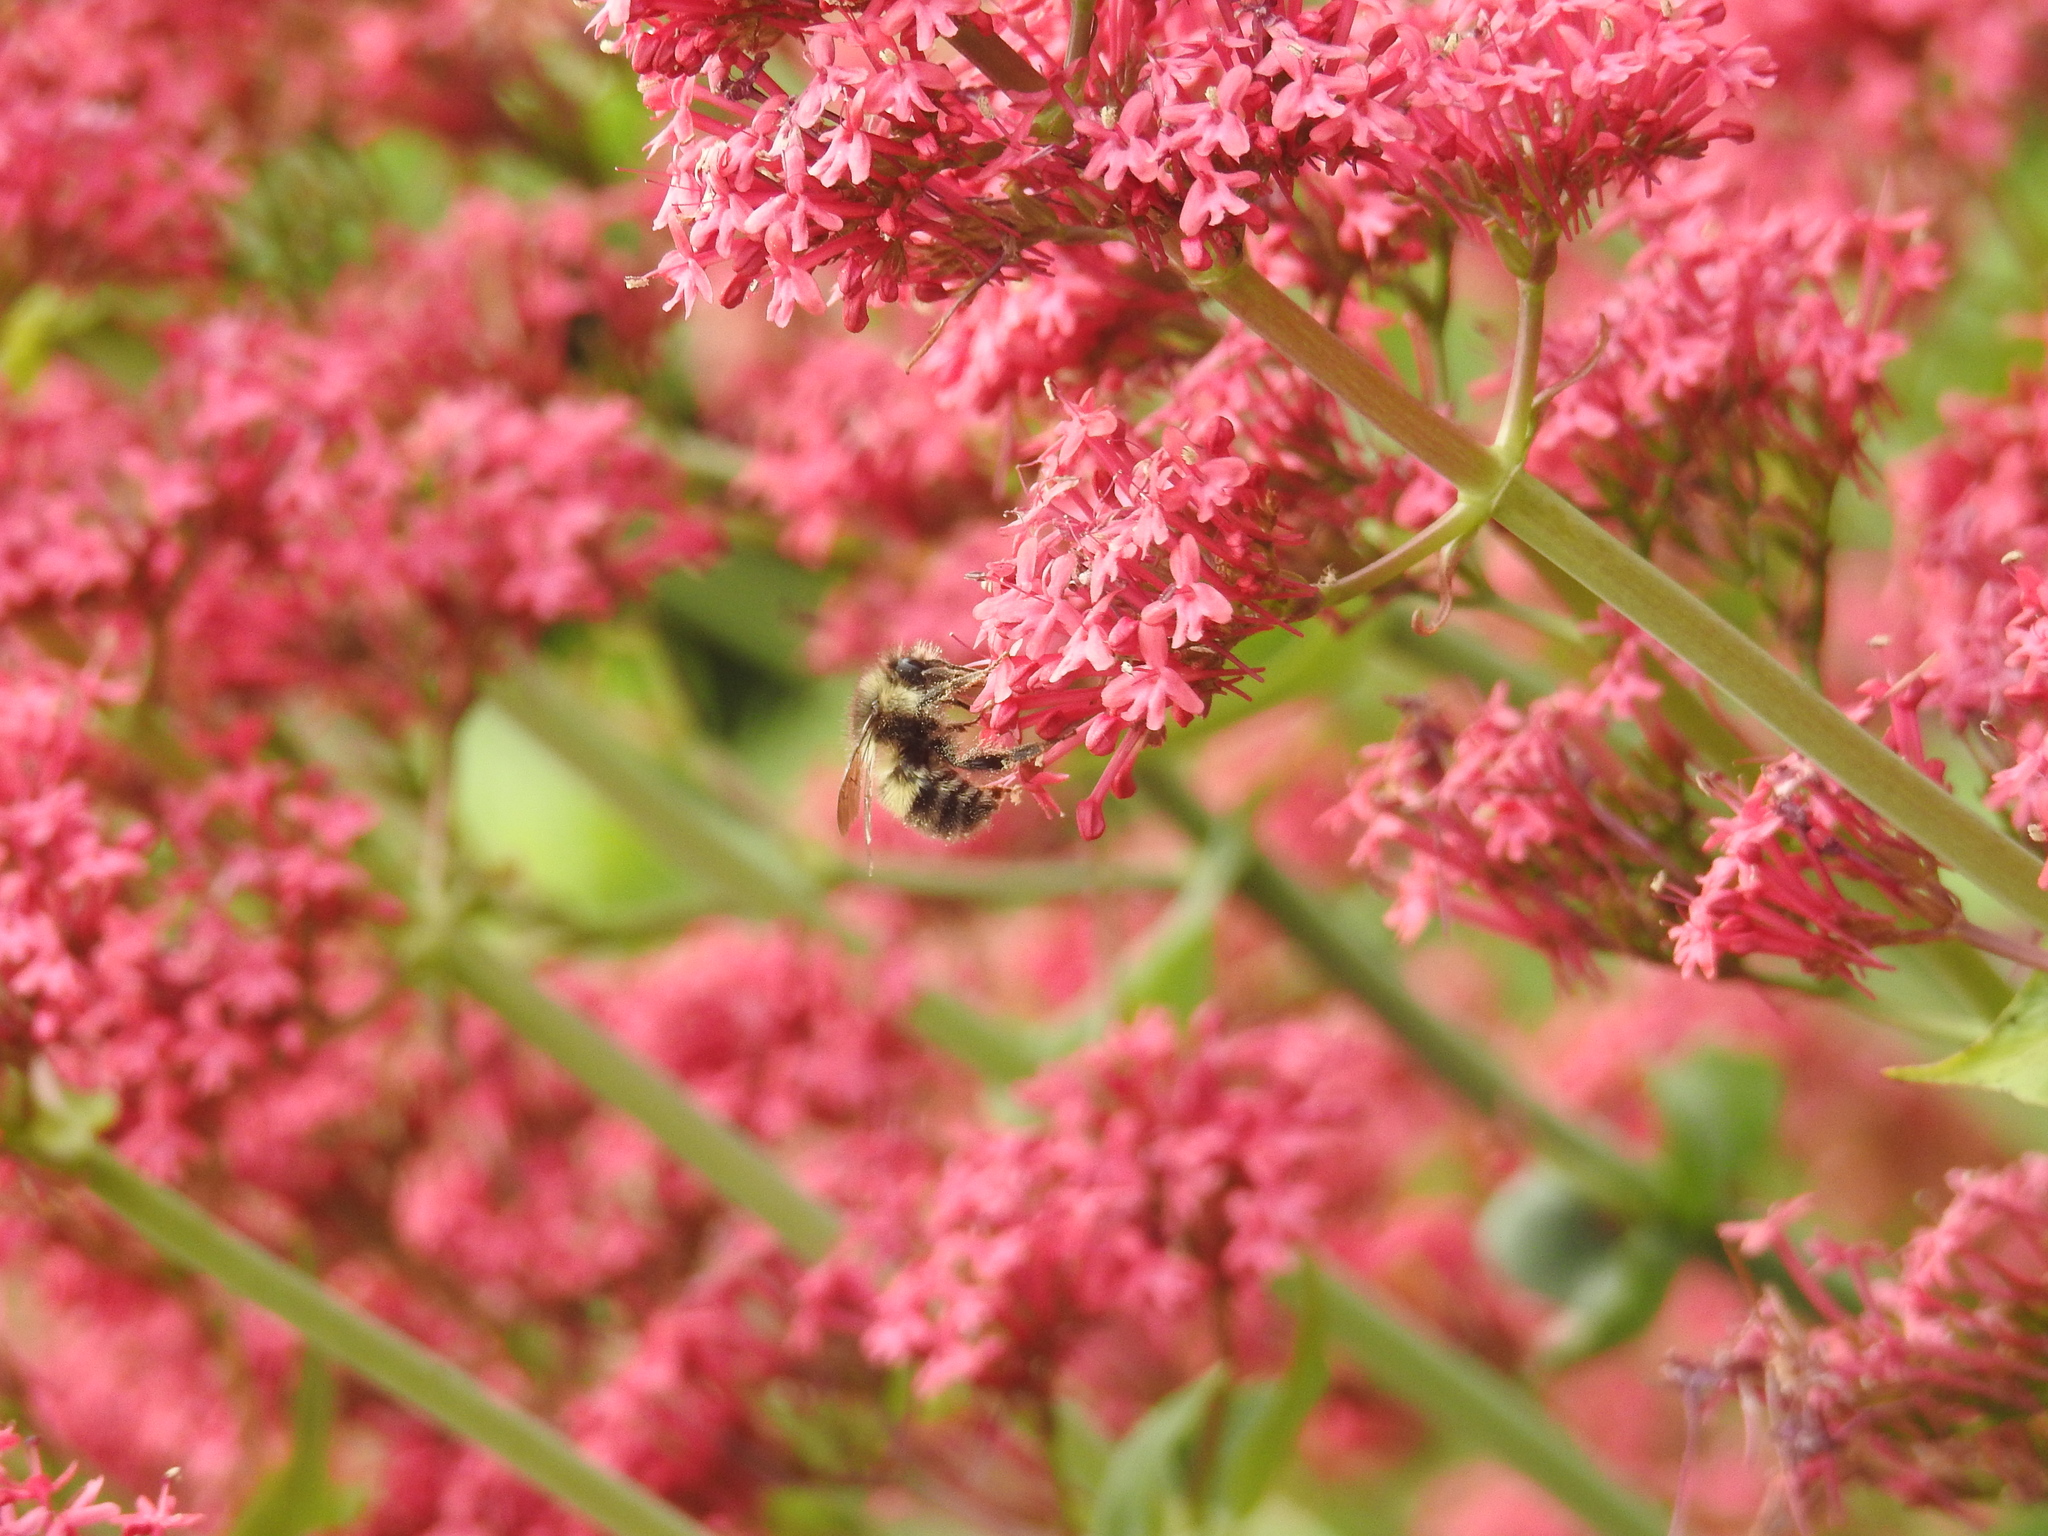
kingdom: Animalia
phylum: Arthropoda
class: Insecta
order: Hymenoptera
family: Apidae
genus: Bombus
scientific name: Bombus flavifrons
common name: Yellow head bumble bee
